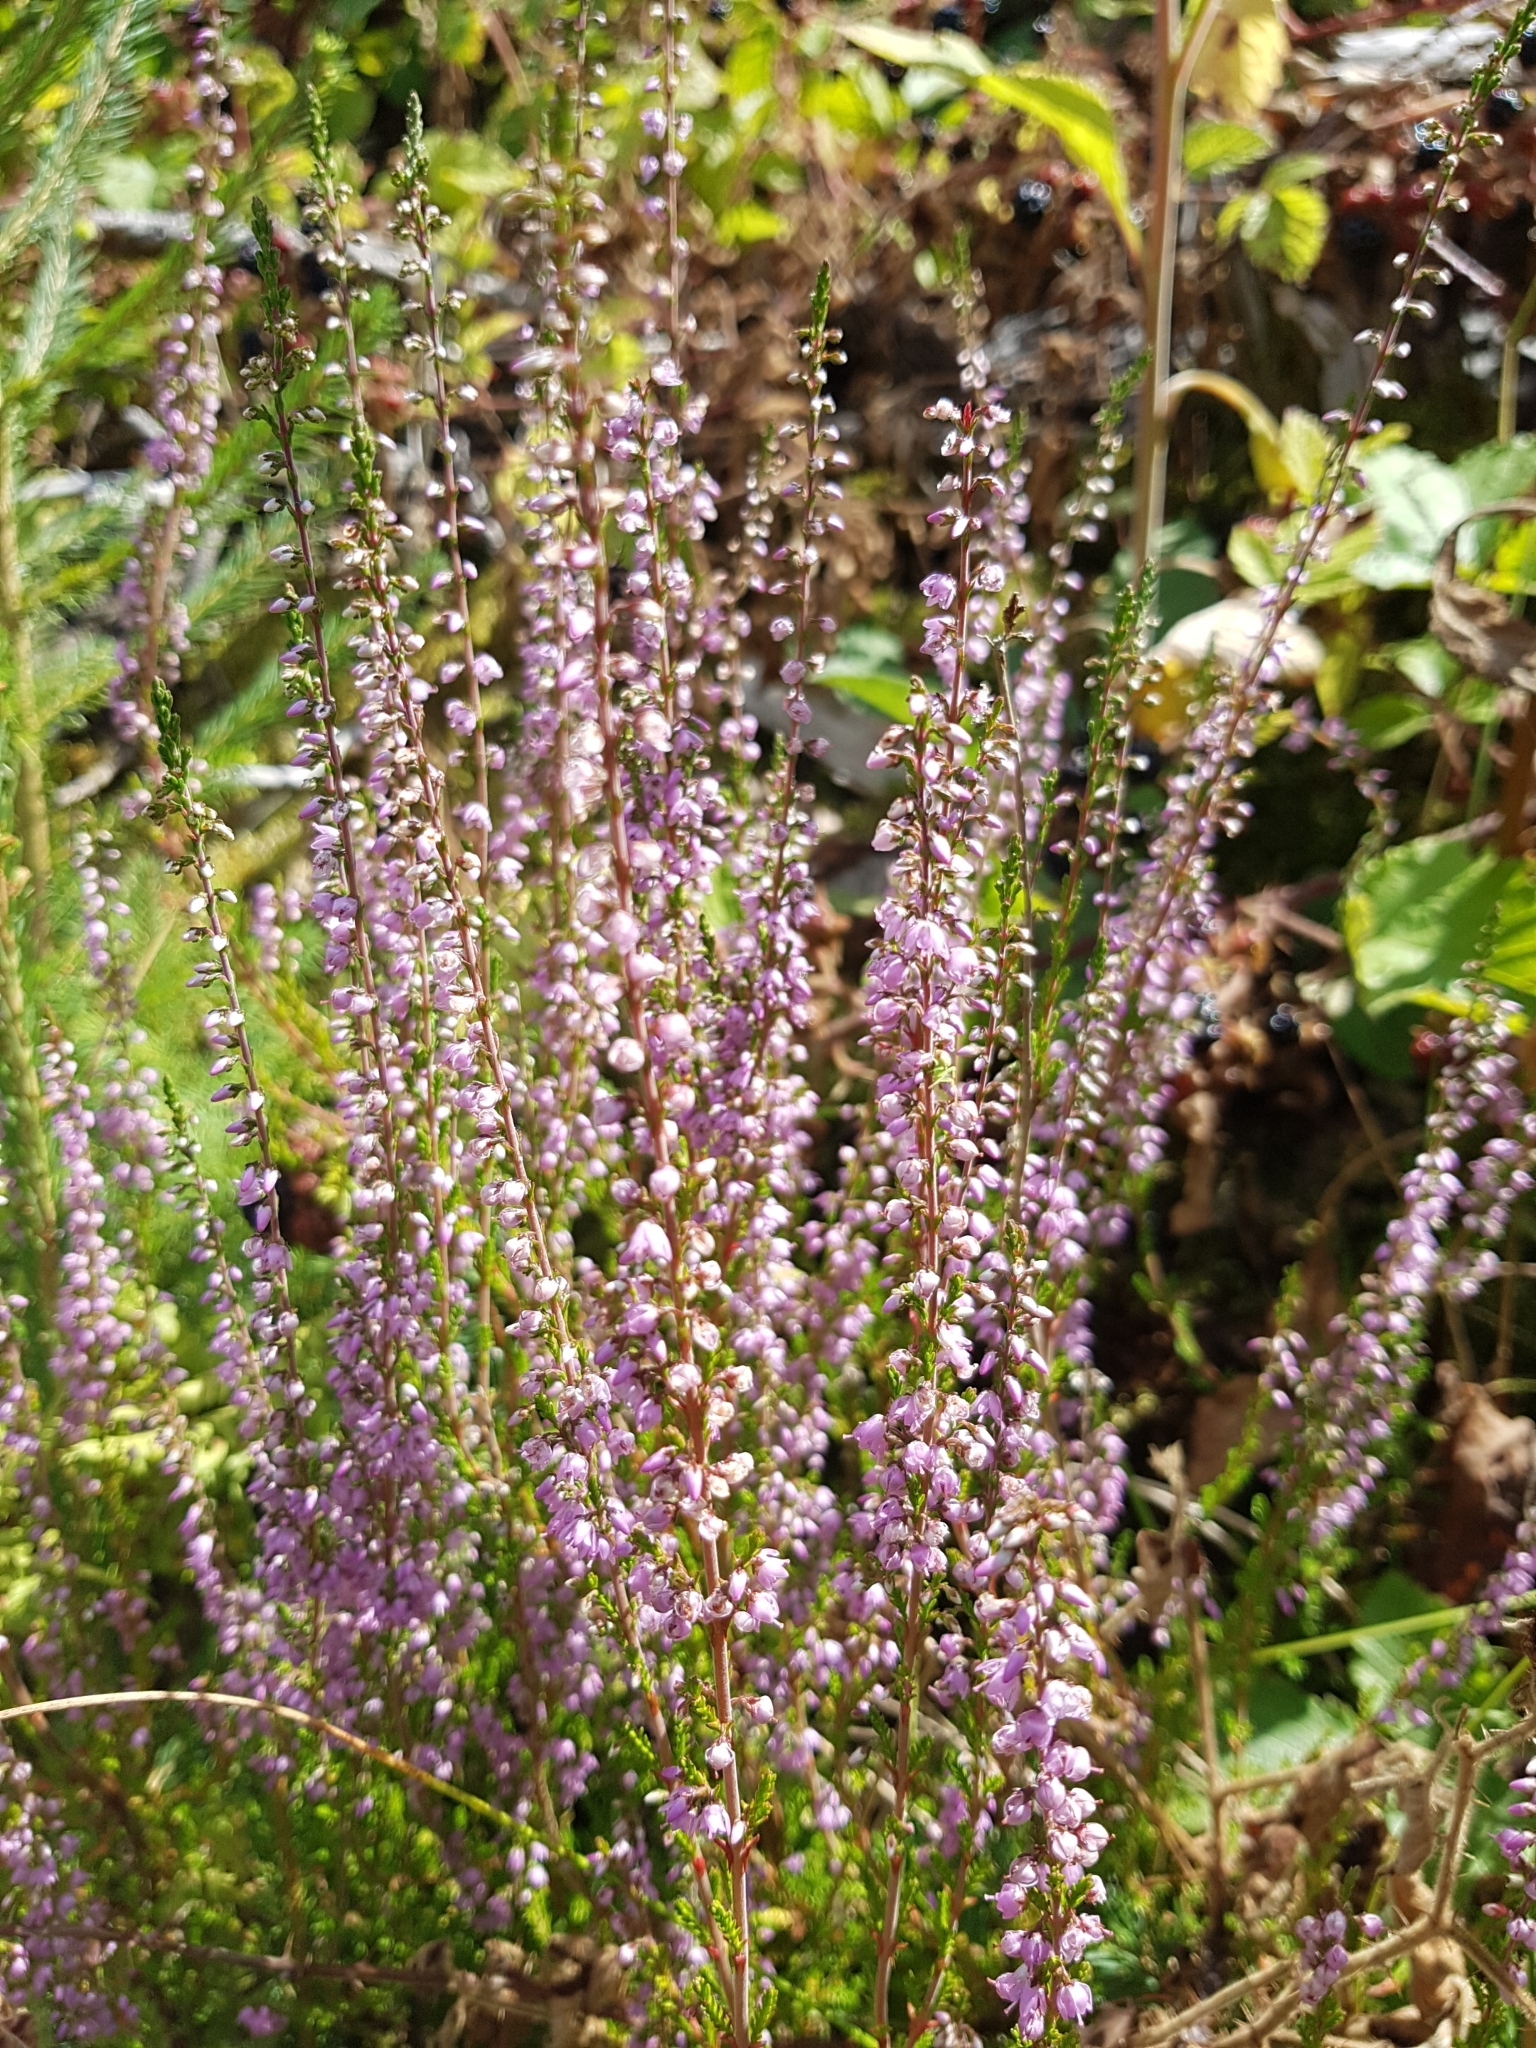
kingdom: Plantae
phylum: Tracheophyta
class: Magnoliopsida
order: Ericales
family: Ericaceae
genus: Calluna
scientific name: Calluna vulgaris
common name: Heather
